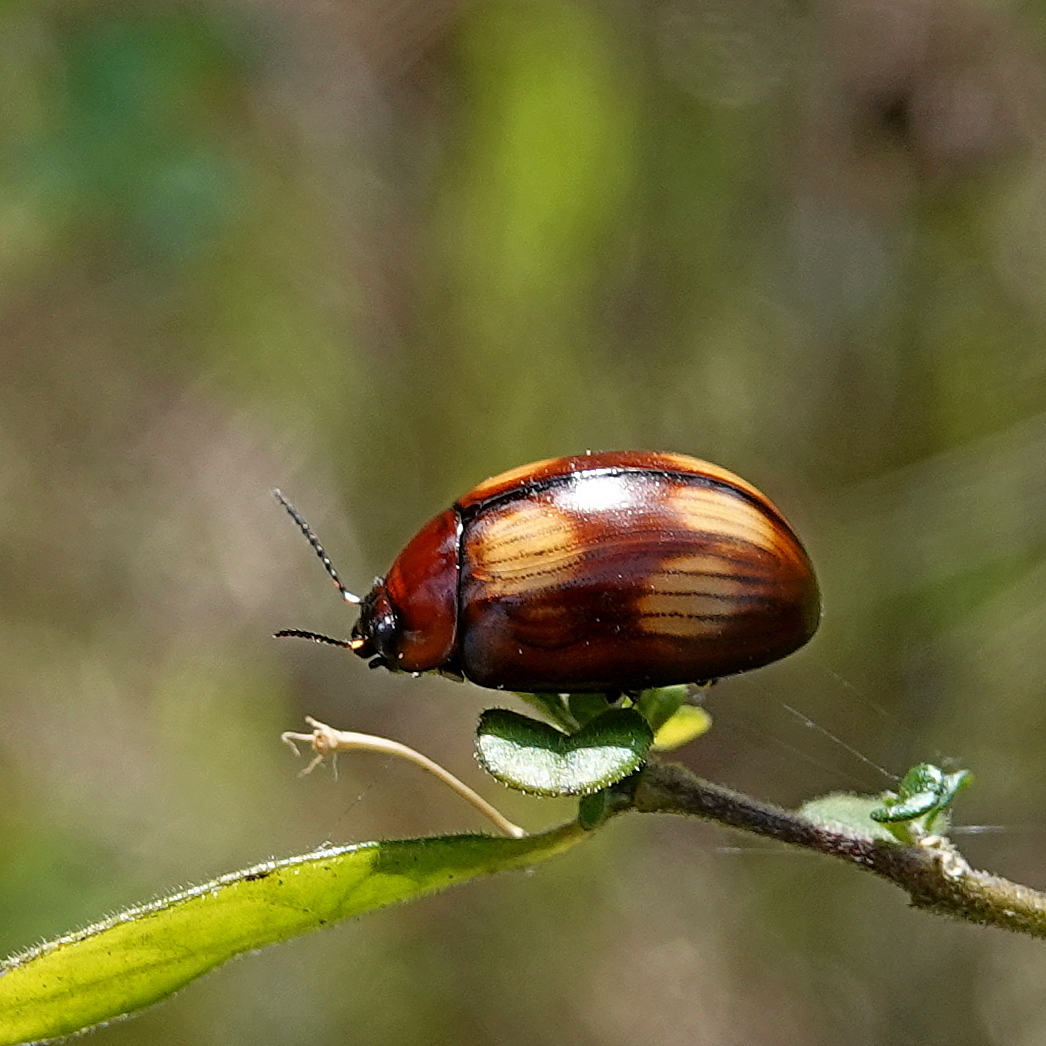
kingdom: Animalia
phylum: Arthropoda
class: Insecta
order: Coleoptera
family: Chrysomelidae
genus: Paropsisterna
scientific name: Paropsisterna
